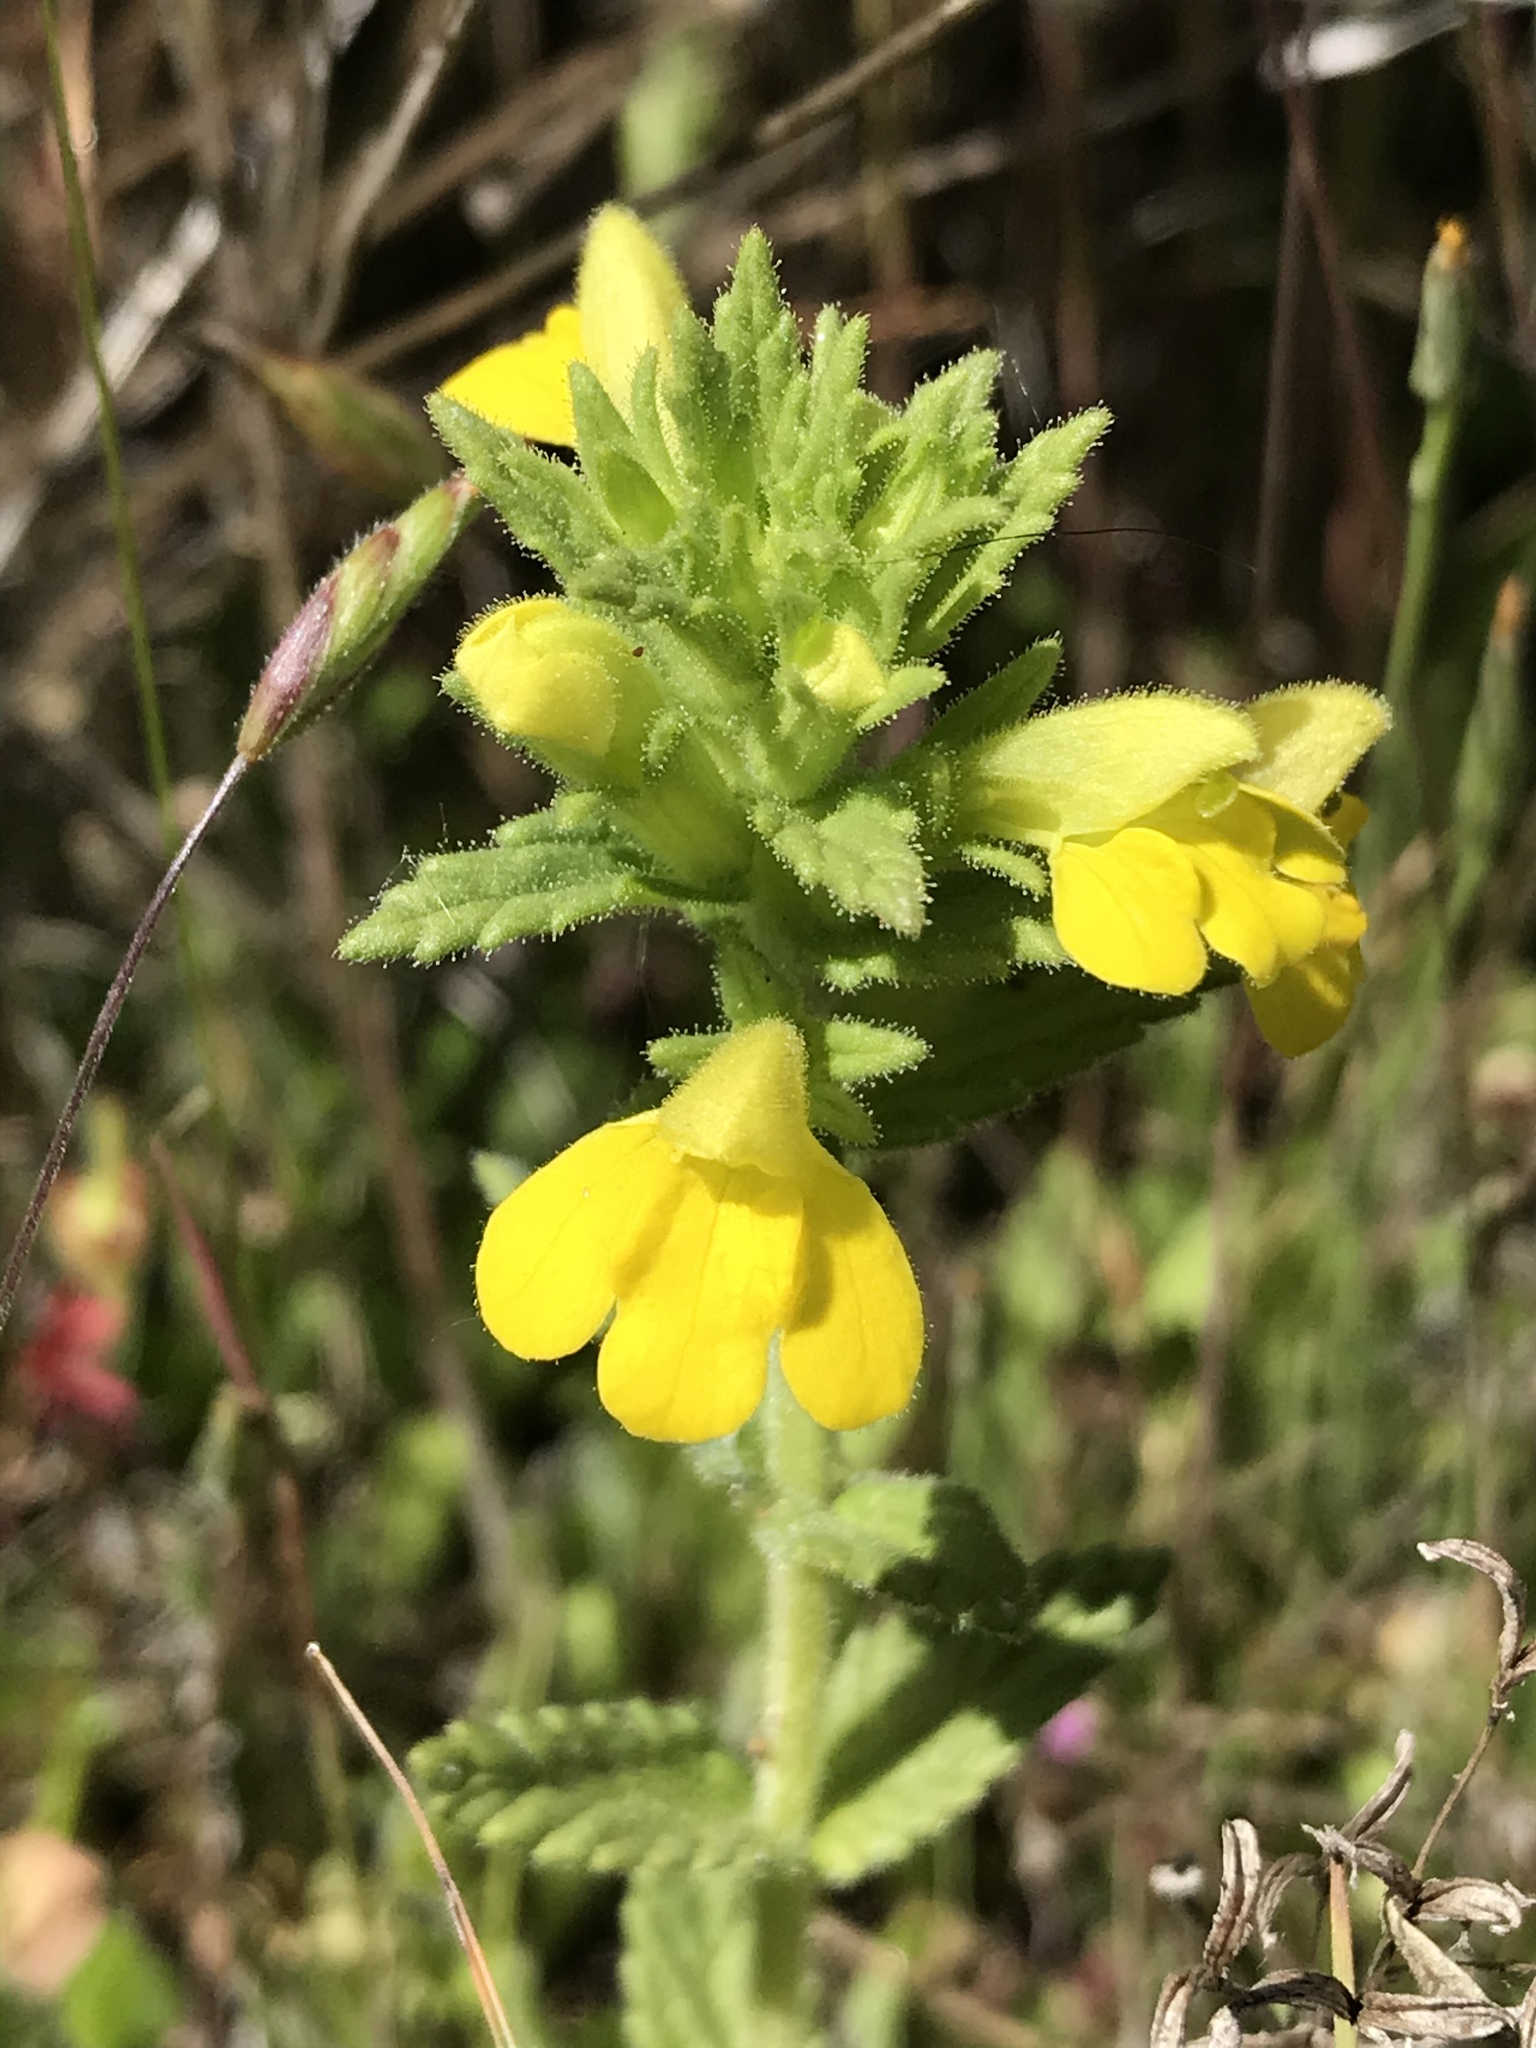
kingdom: Plantae
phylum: Tracheophyta
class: Magnoliopsida
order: Lamiales
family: Orobanchaceae
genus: Bellardia
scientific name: Bellardia viscosa
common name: Sticky parentucellia
